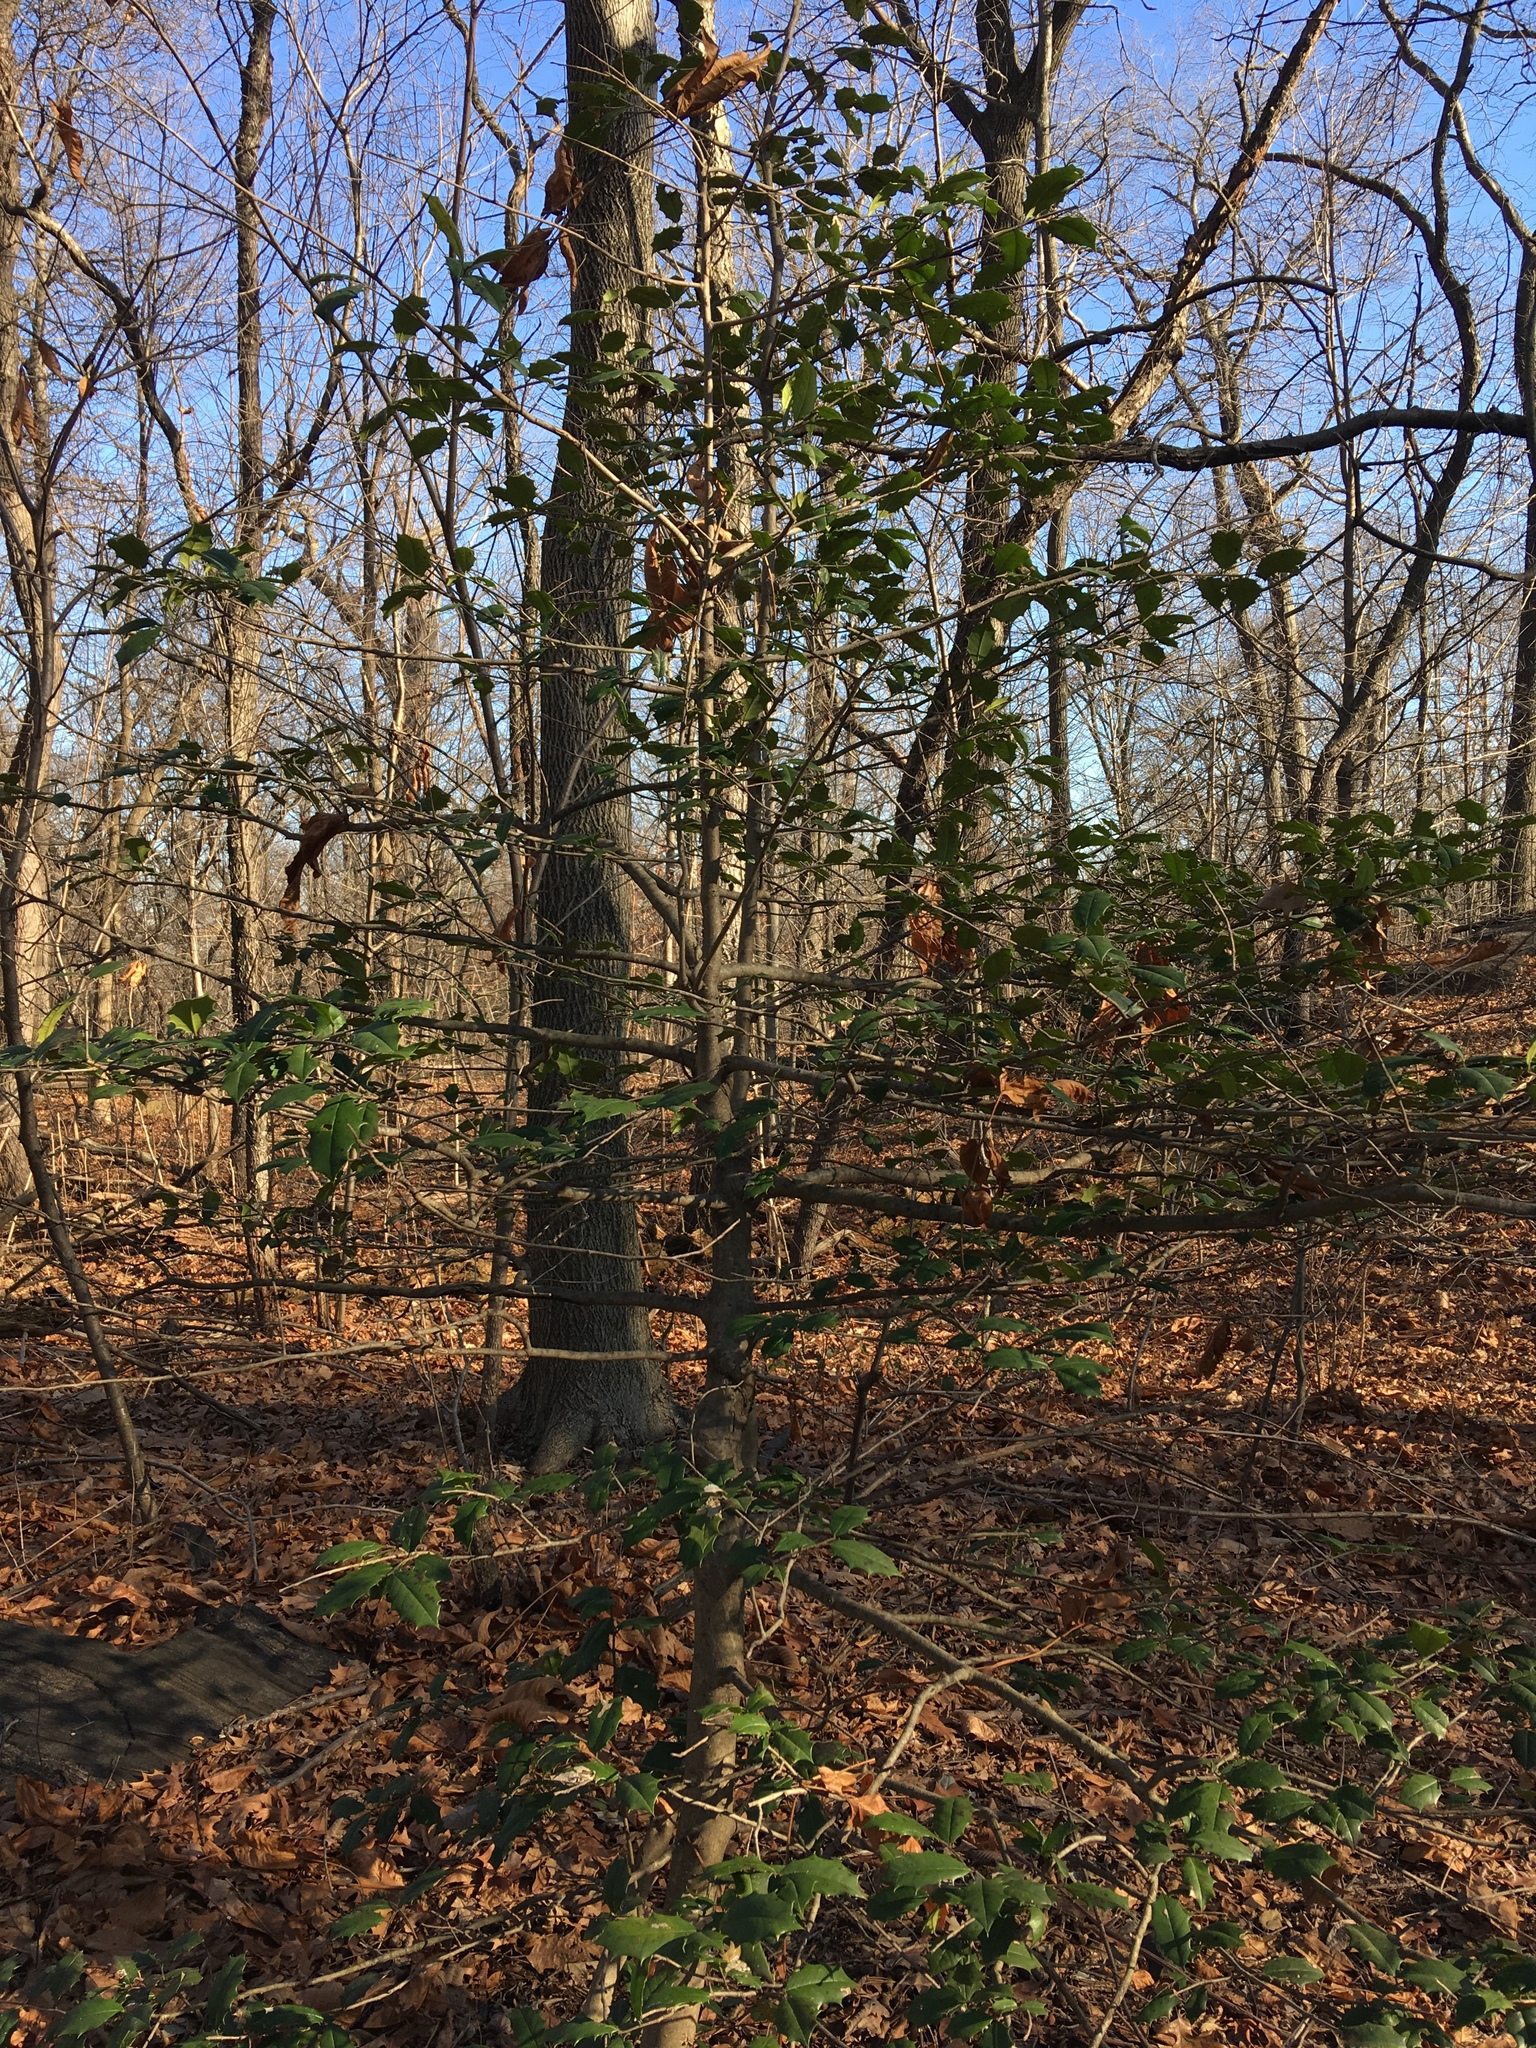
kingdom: Plantae
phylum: Tracheophyta
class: Magnoliopsida
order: Aquifoliales
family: Aquifoliaceae
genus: Ilex
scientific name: Ilex opaca
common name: American holly
